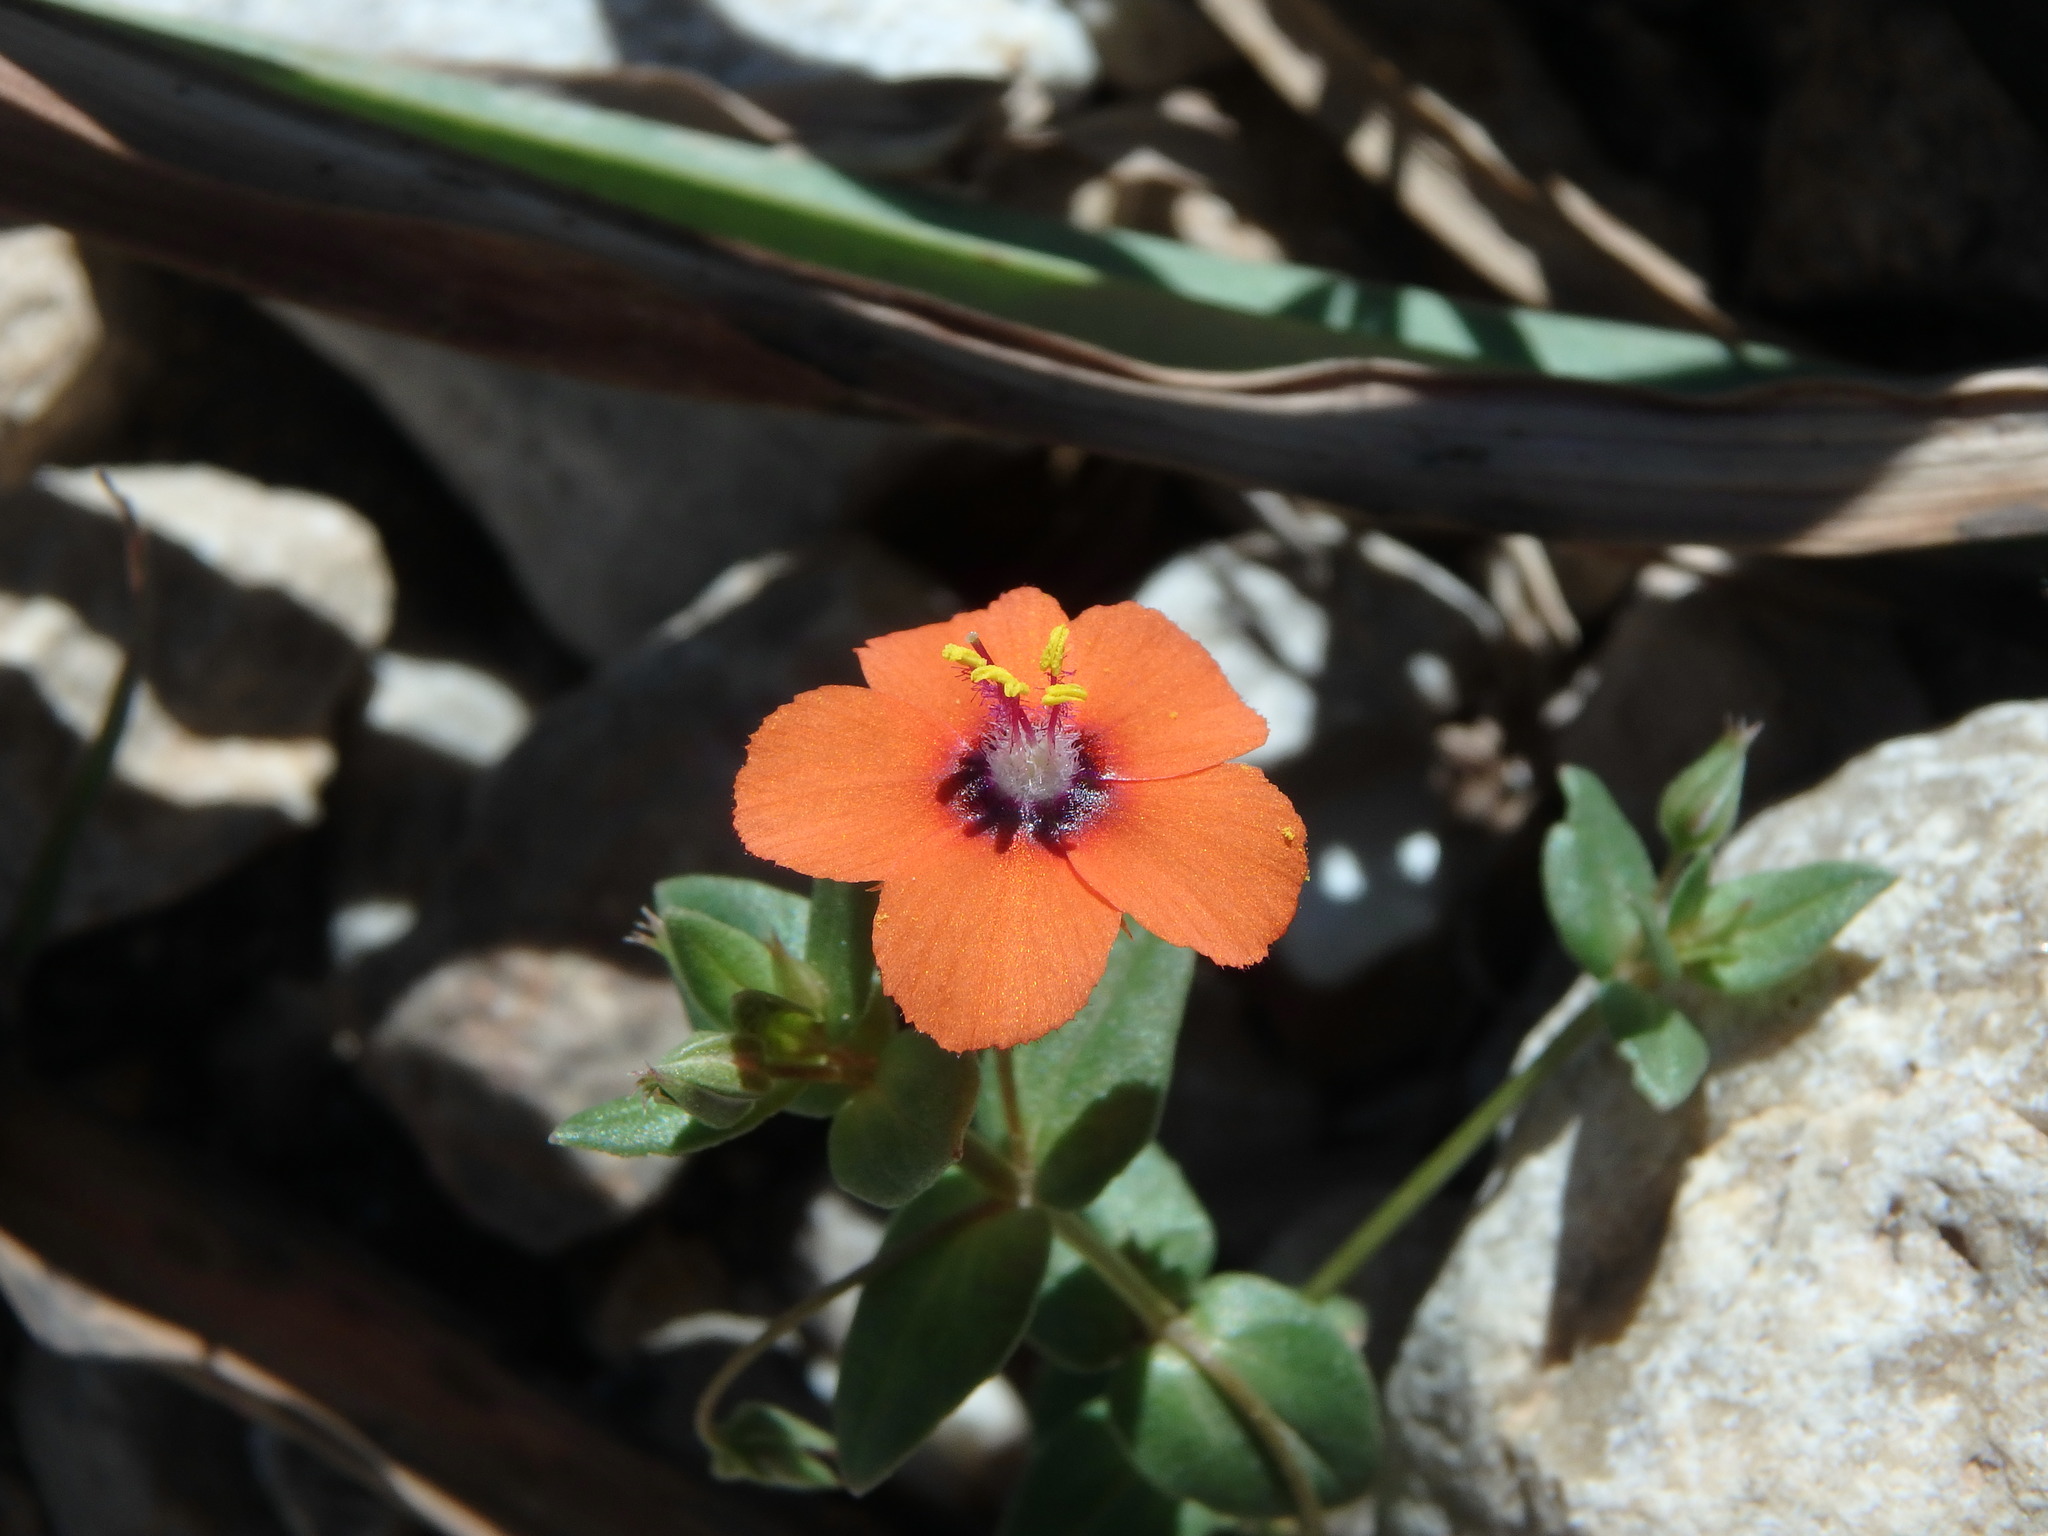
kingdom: Plantae
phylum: Tracheophyta
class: Magnoliopsida
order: Ericales
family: Primulaceae
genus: Lysimachia
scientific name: Lysimachia arvensis
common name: Scarlet pimpernel
